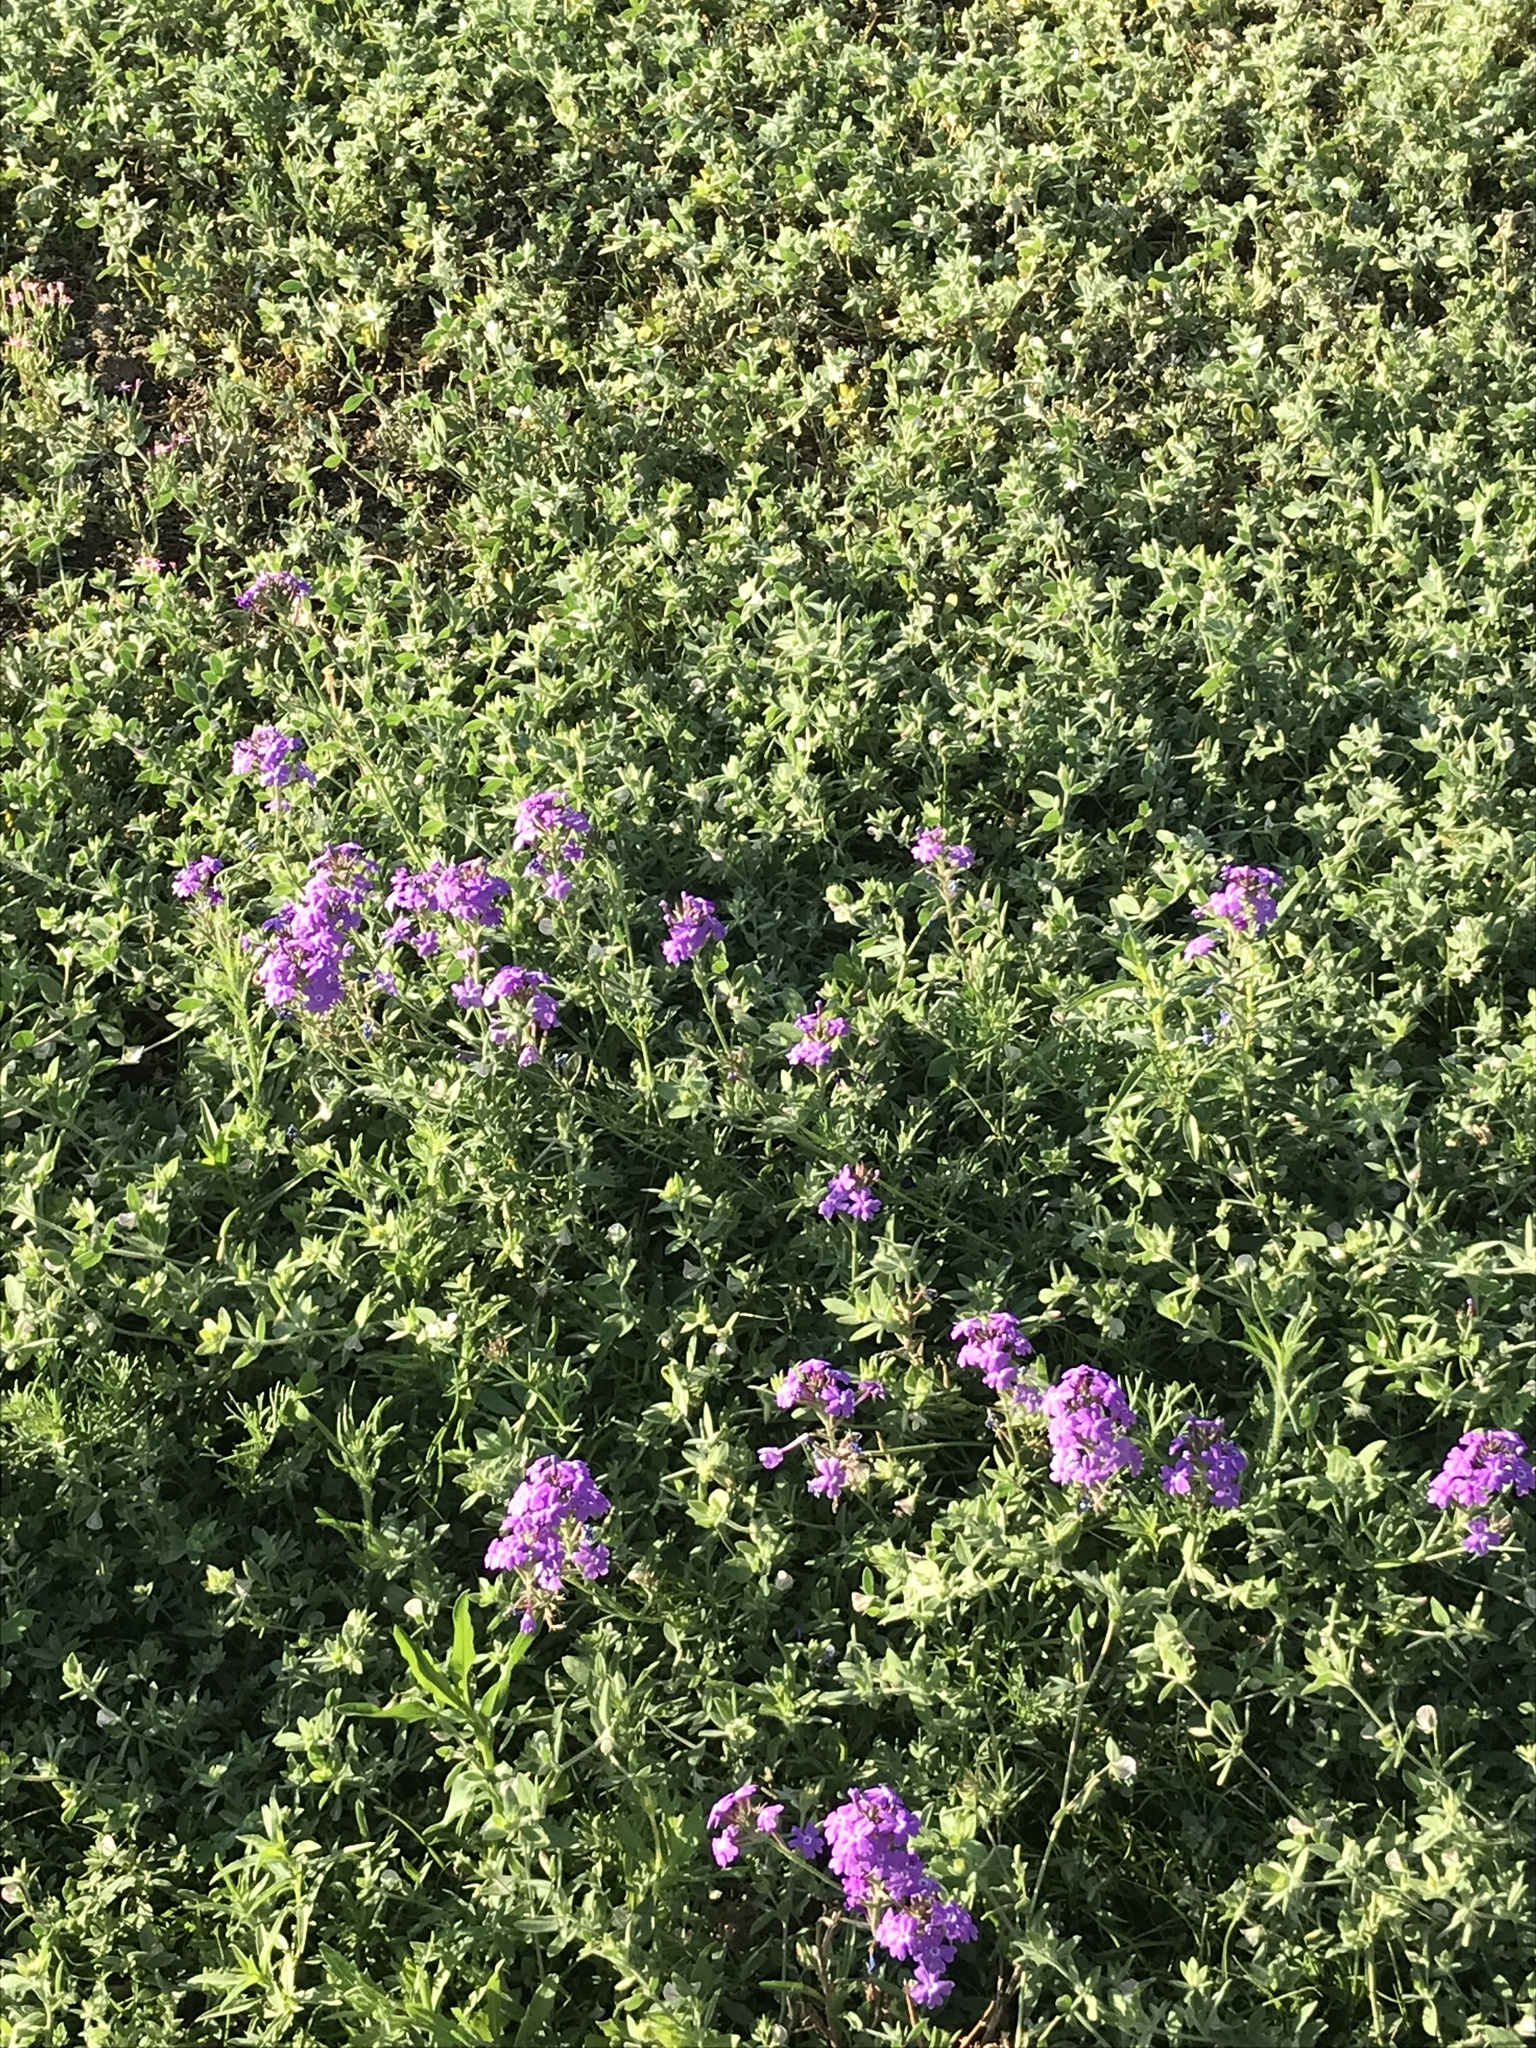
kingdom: Plantae
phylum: Tracheophyta
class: Magnoliopsida
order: Lamiales
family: Verbenaceae
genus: Verbena
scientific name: Verbena
